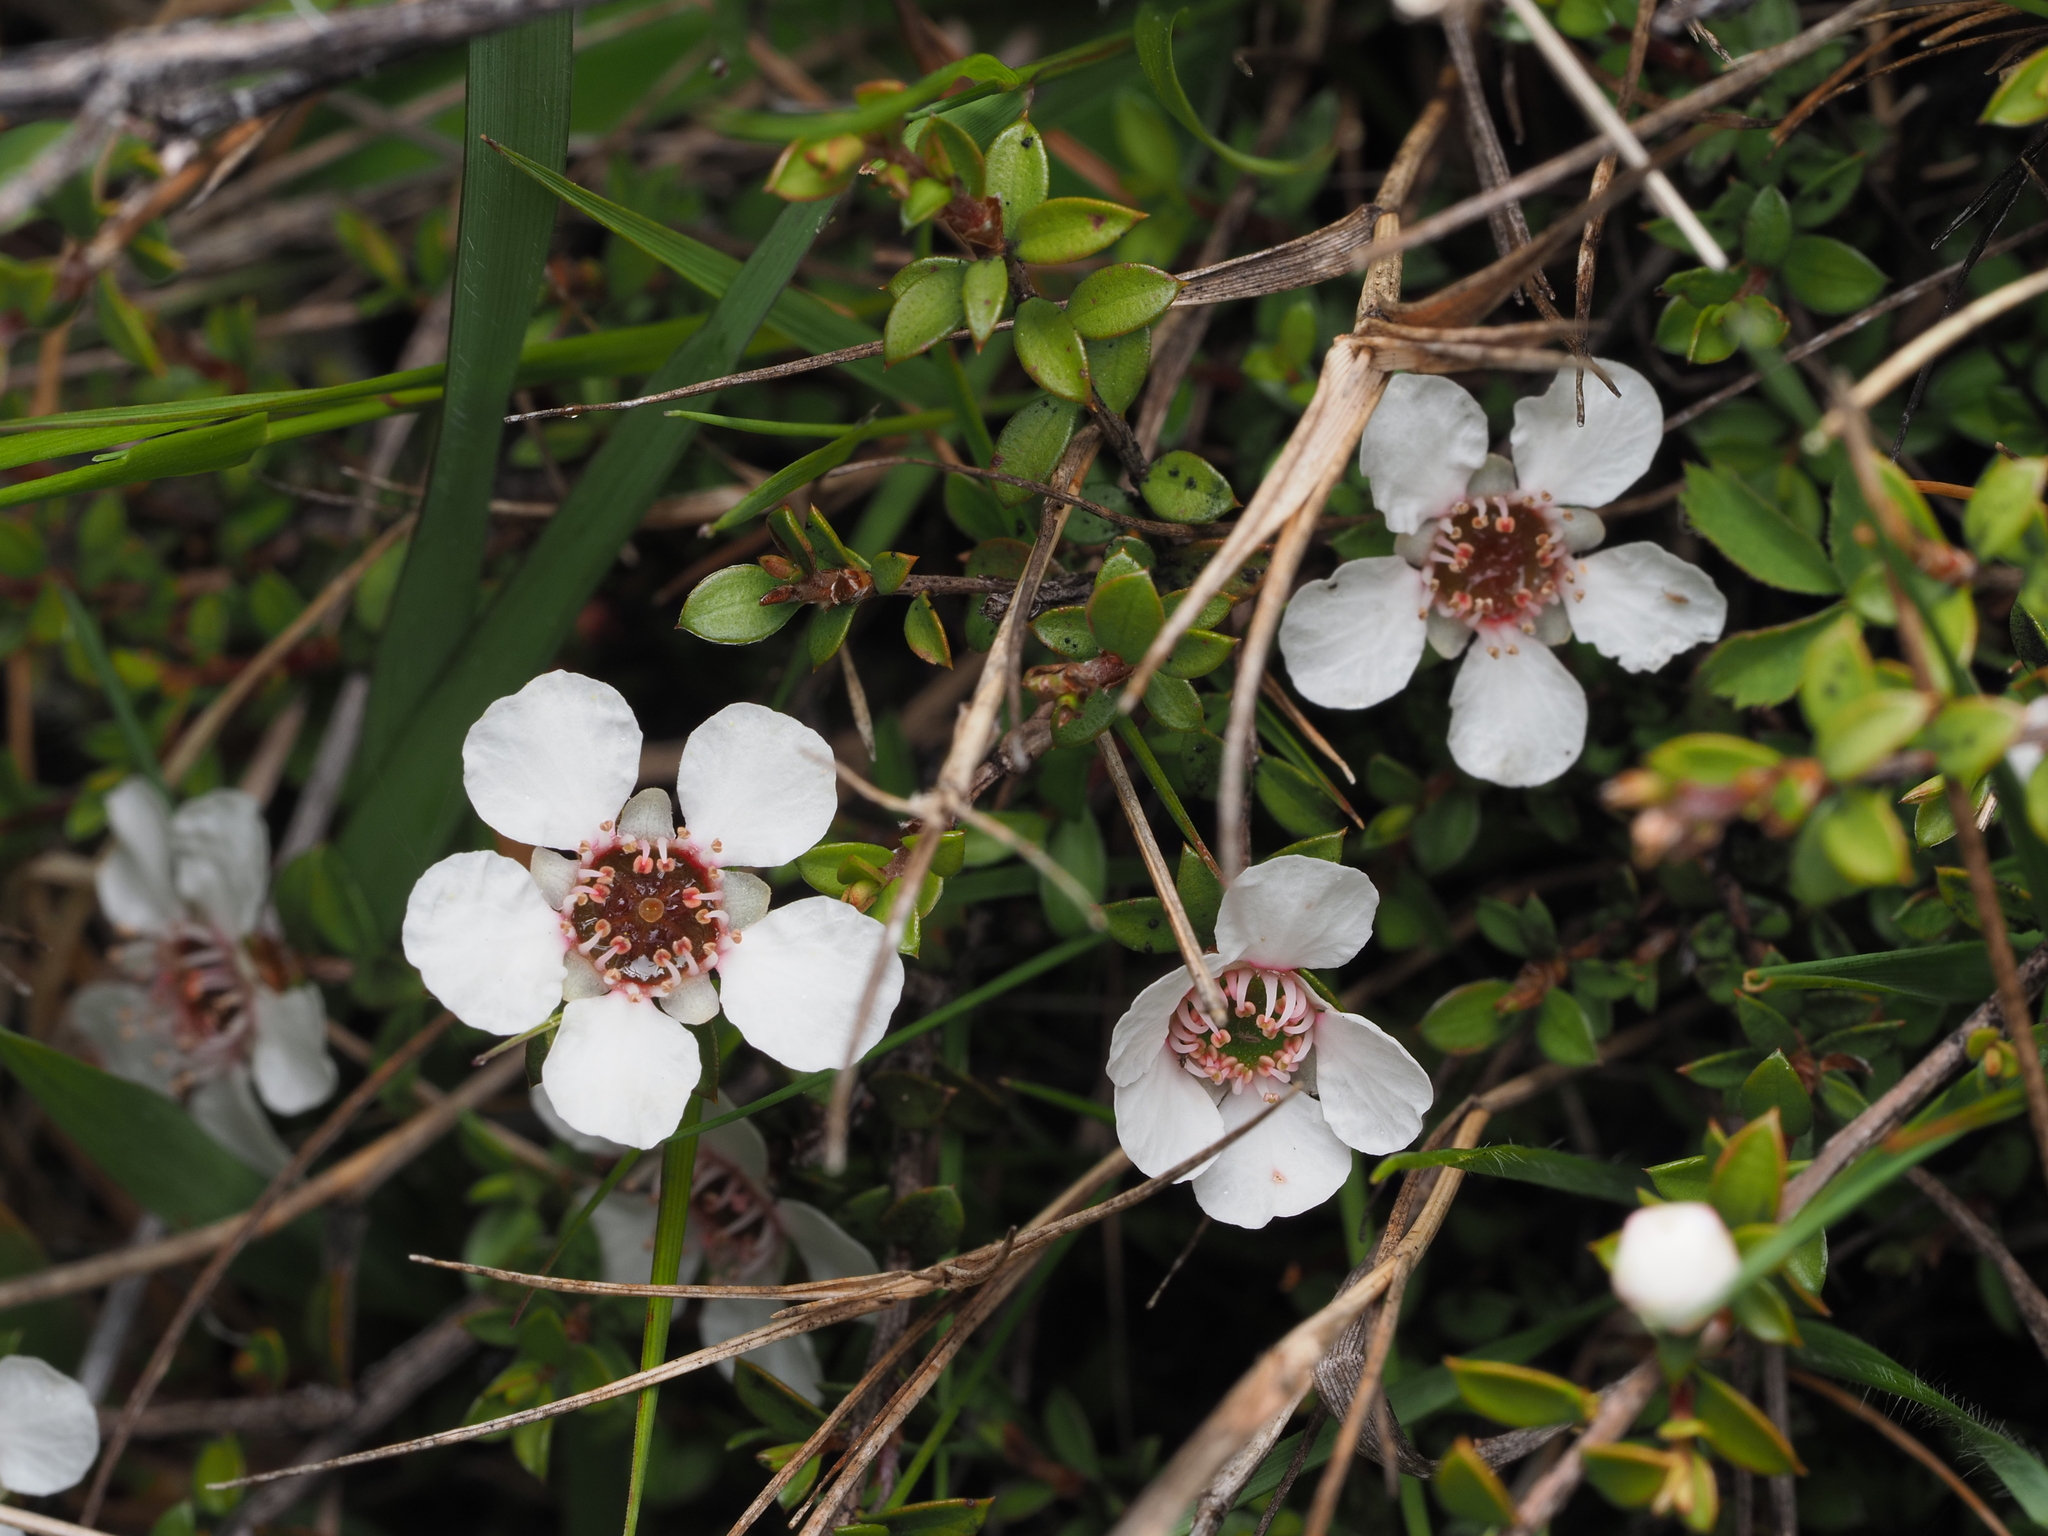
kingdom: Plantae
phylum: Tracheophyta
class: Magnoliopsida
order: Myrtales
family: Myrtaceae
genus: Leptospermum
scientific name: Leptospermum scoparium
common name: Broom tea-tree
